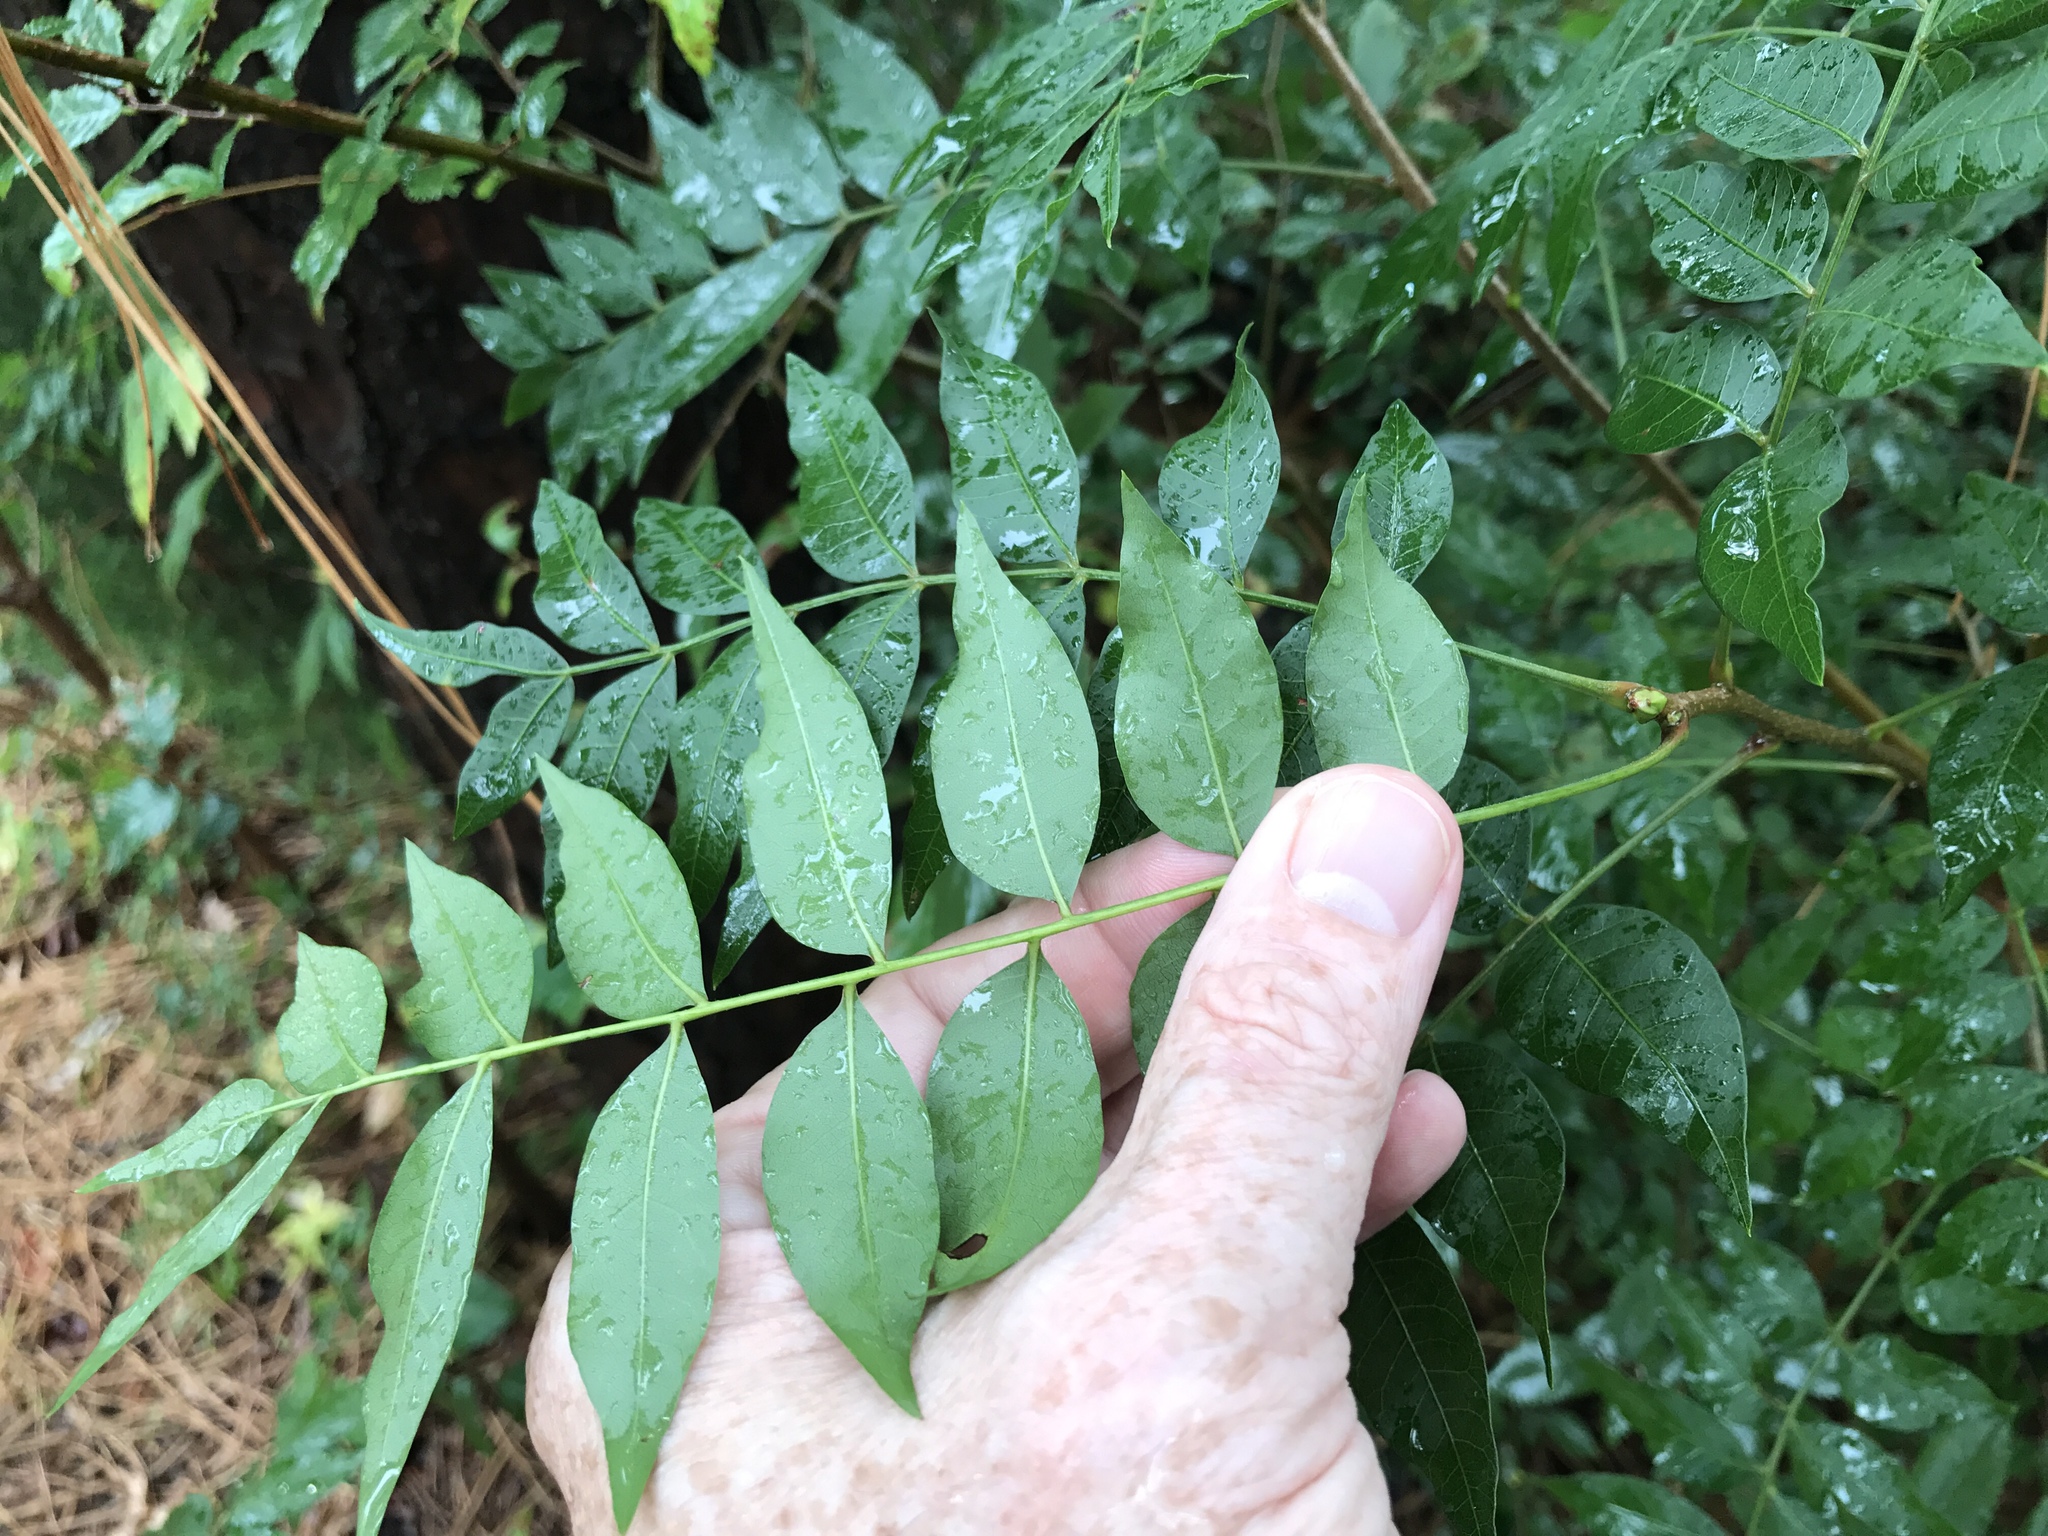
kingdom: Plantae
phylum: Tracheophyta
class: Magnoliopsida
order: Sapindales
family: Anacardiaceae
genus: Pistacia
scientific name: Pistacia chinensis
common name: Chinese pistache
